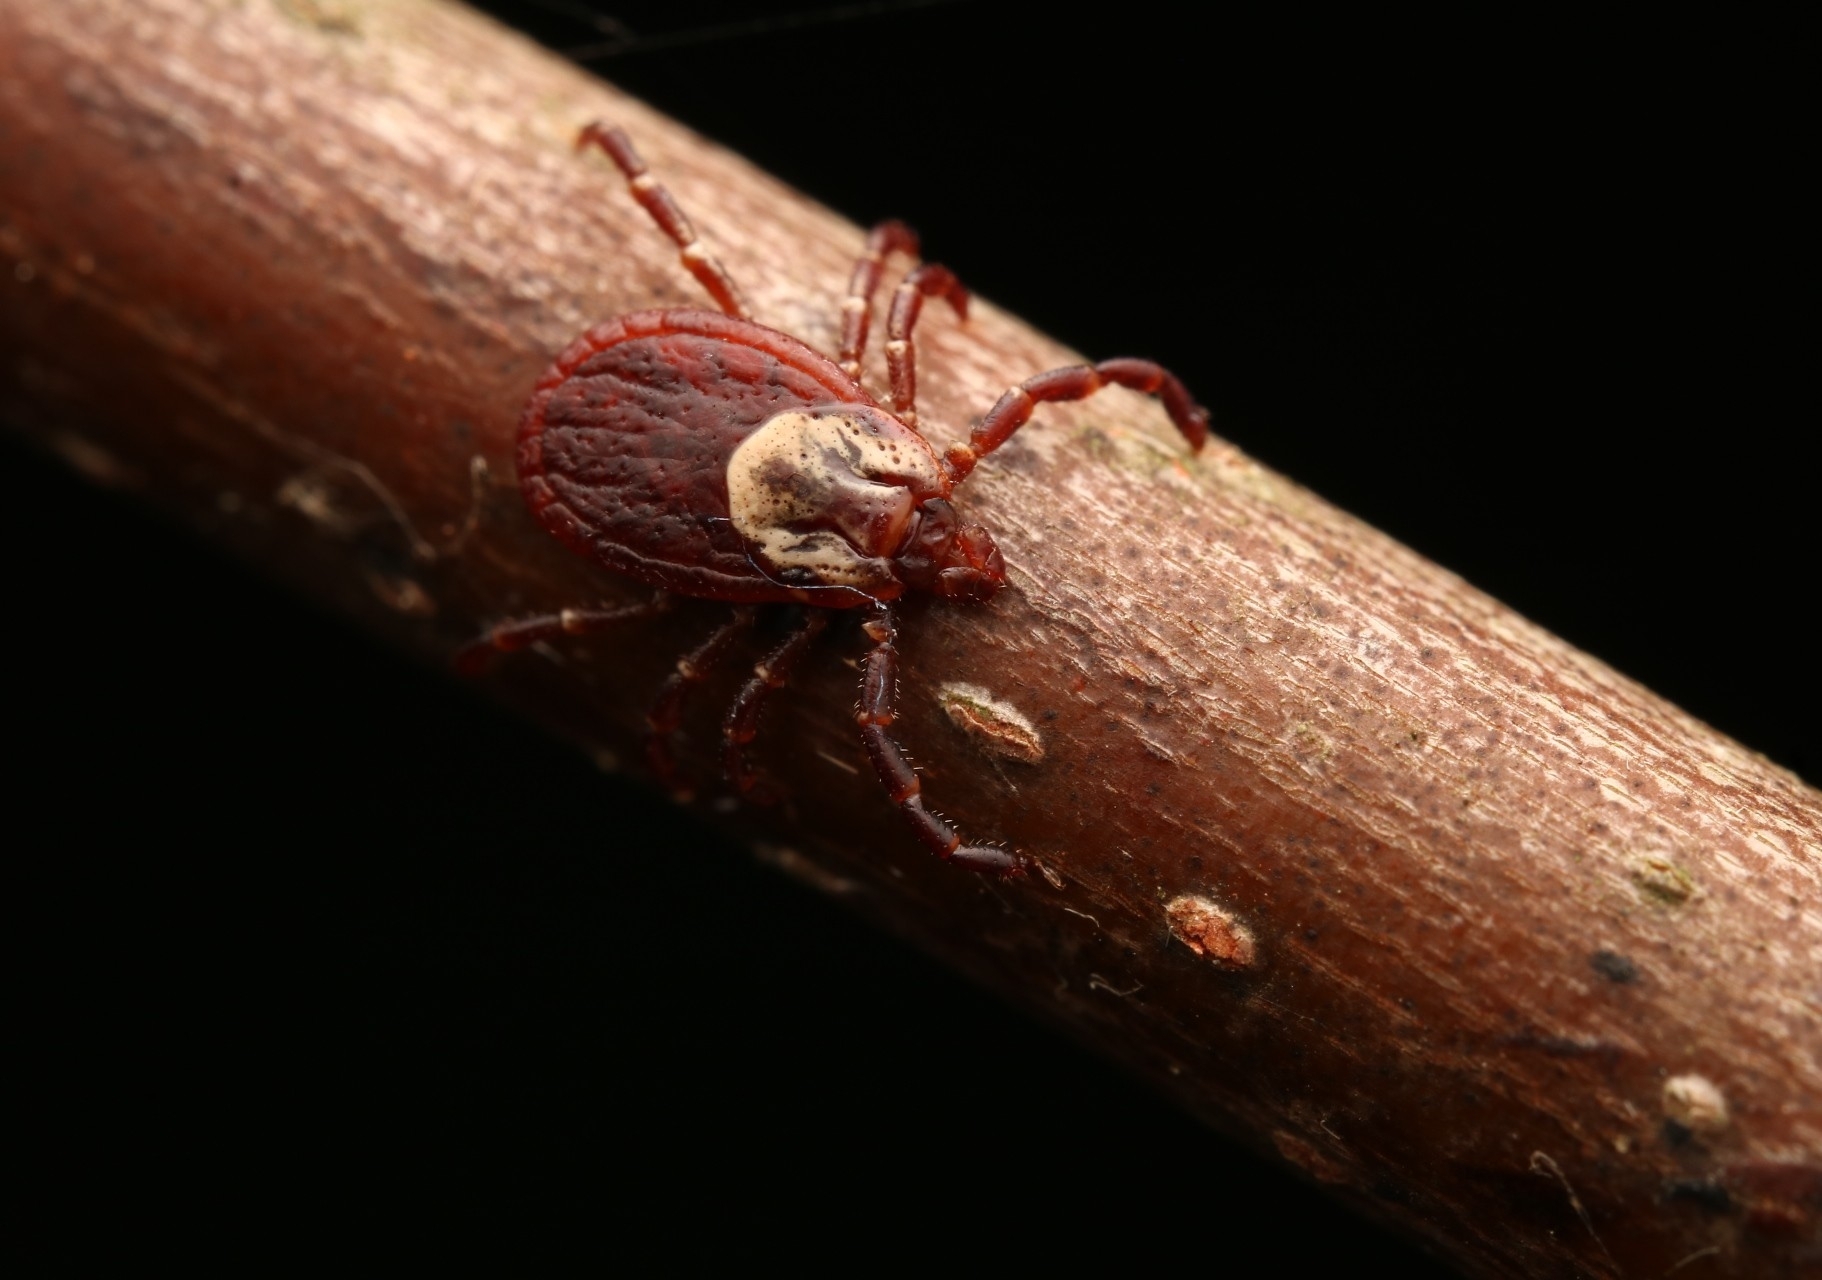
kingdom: Animalia
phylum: Arthropoda
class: Arachnida
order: Ixodida
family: Ixodidae
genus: Dermacentor
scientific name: Dermacentor variabilis
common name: American dog tick
